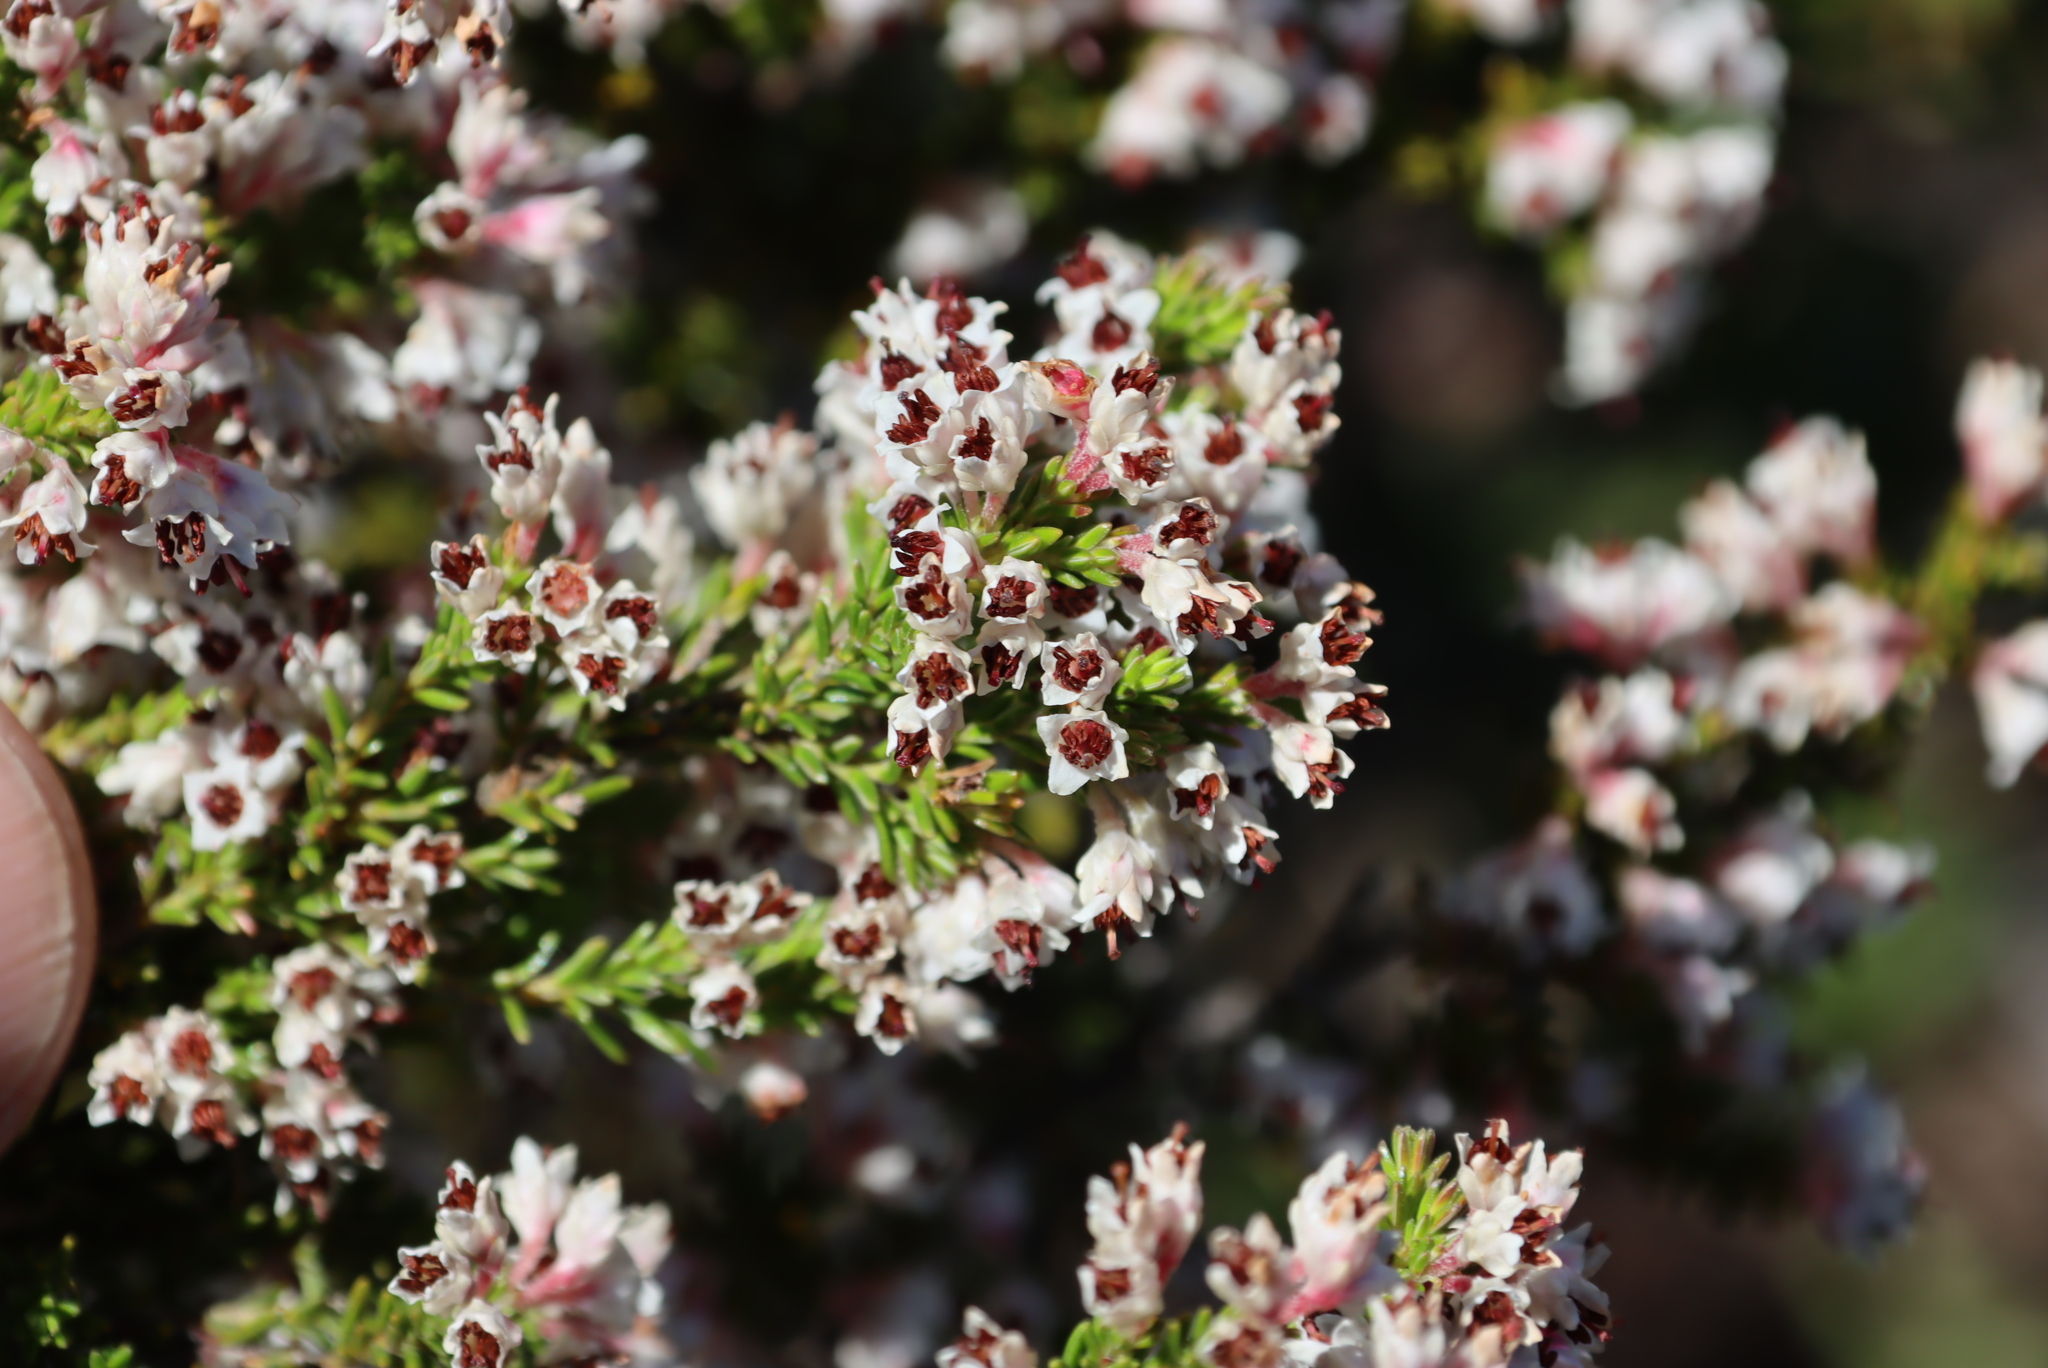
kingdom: Plantae
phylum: Tracheophyta
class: Magnoliopsida
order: Ericales
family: Ericaceae
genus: Erica
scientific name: Erica calycina
